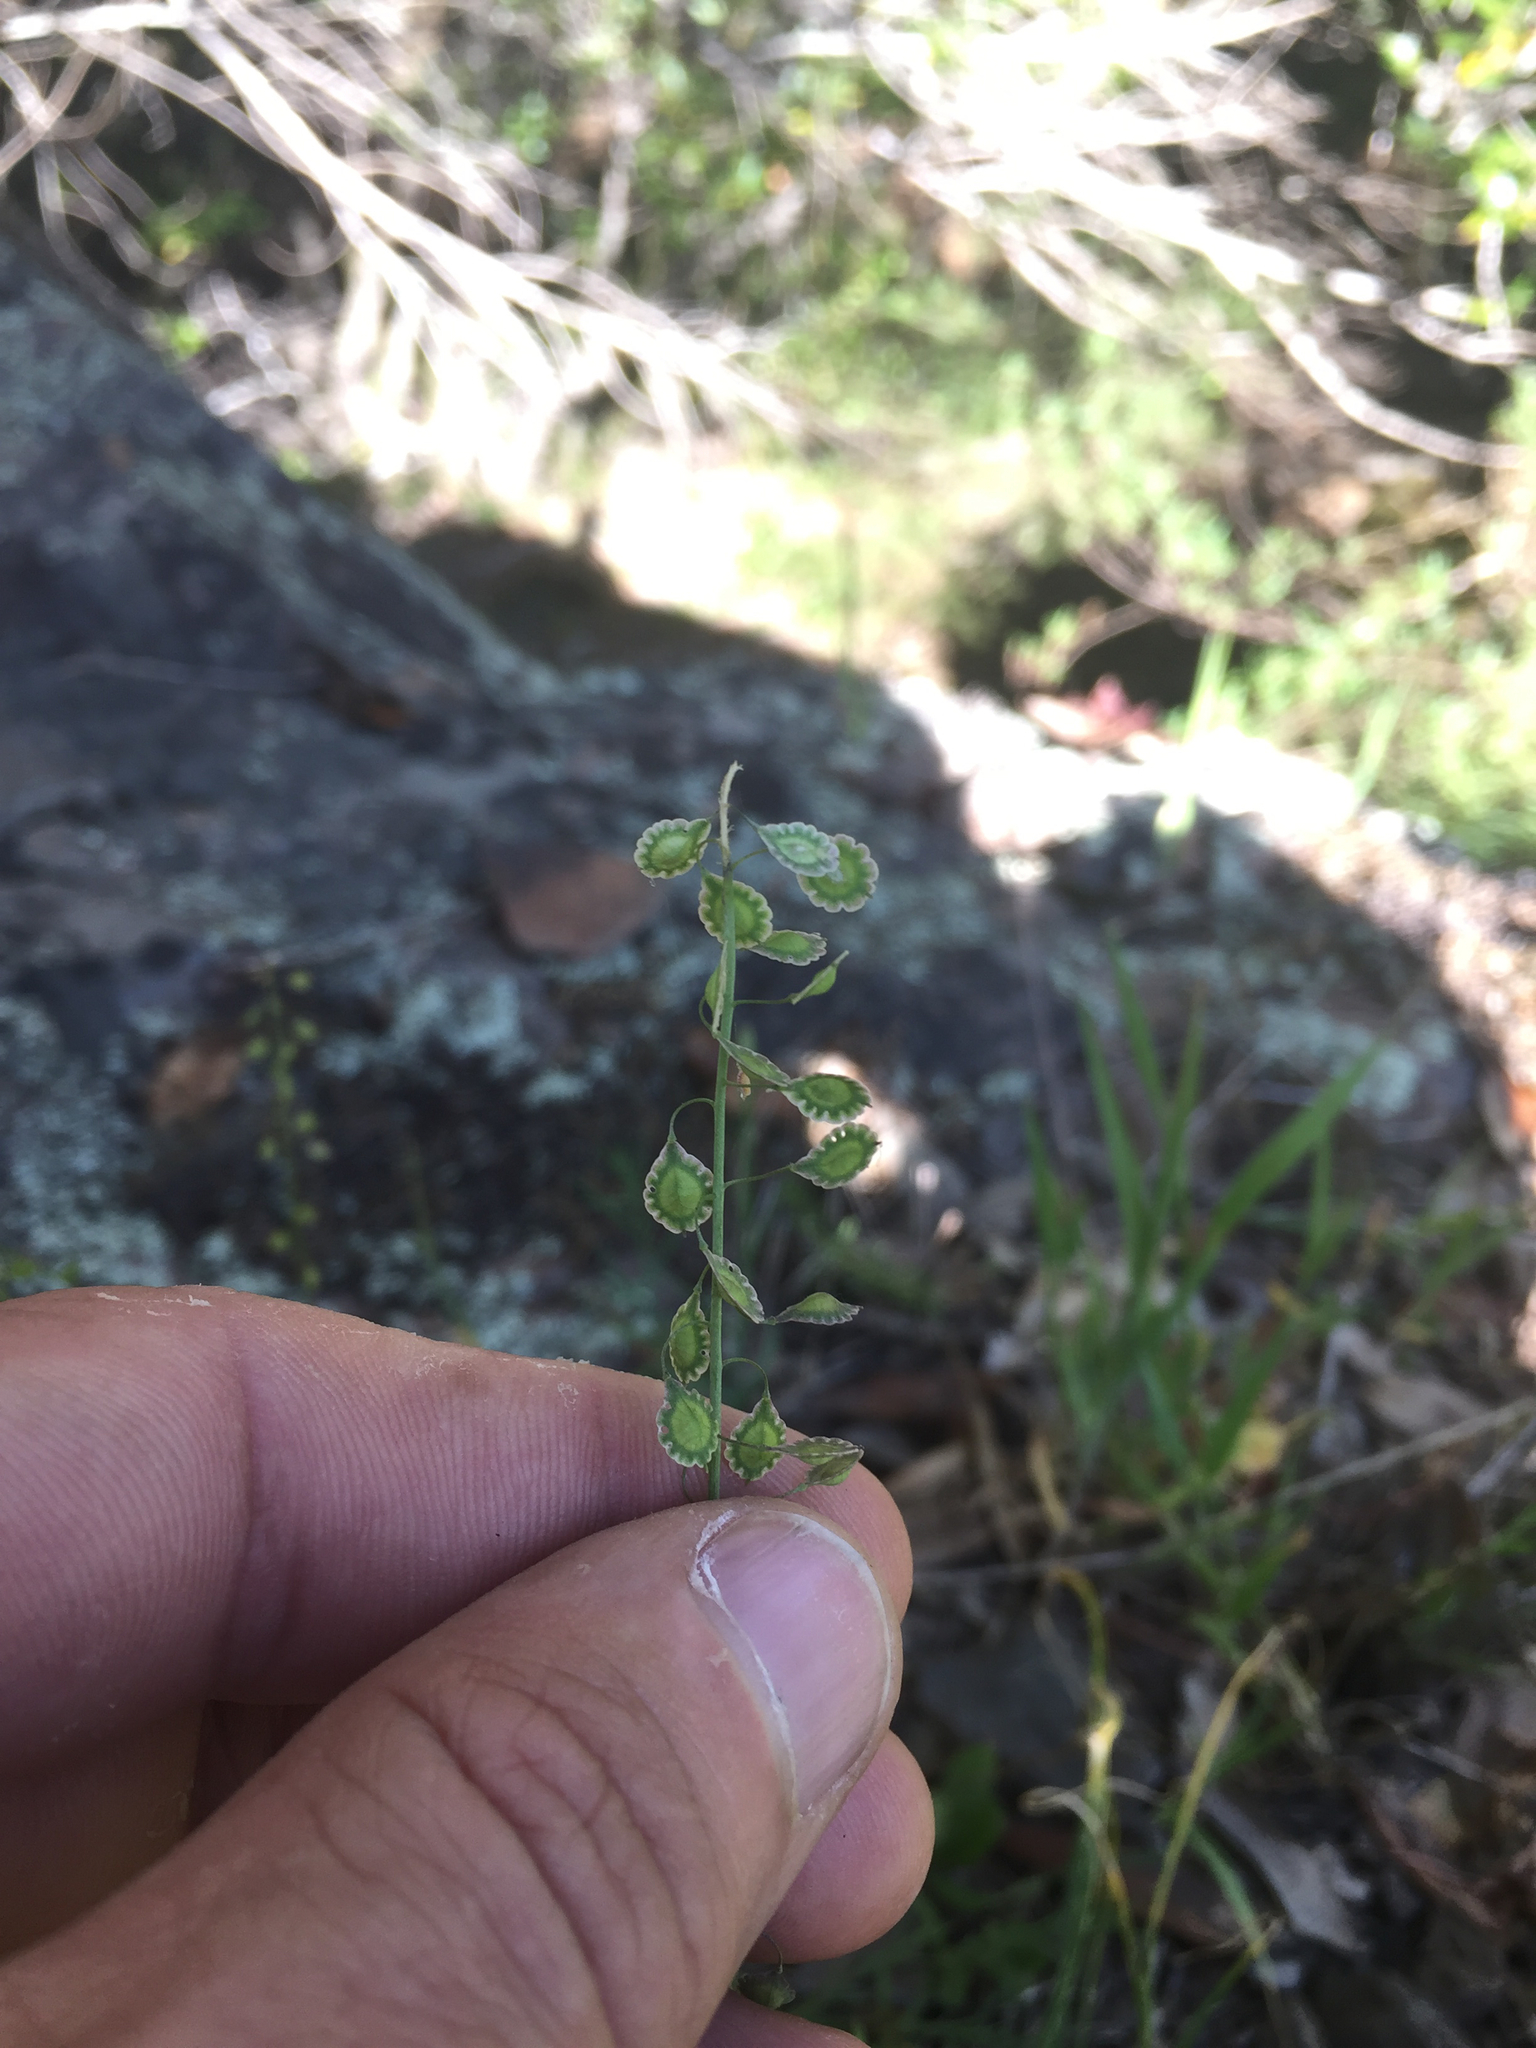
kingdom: Plantae
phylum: Tracheophyta
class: Magnoliopsida
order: Brassicales
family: Brassicaceae
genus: Thysanocarpus
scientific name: Thysanocarpus curvipes
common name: Sand fringepod
